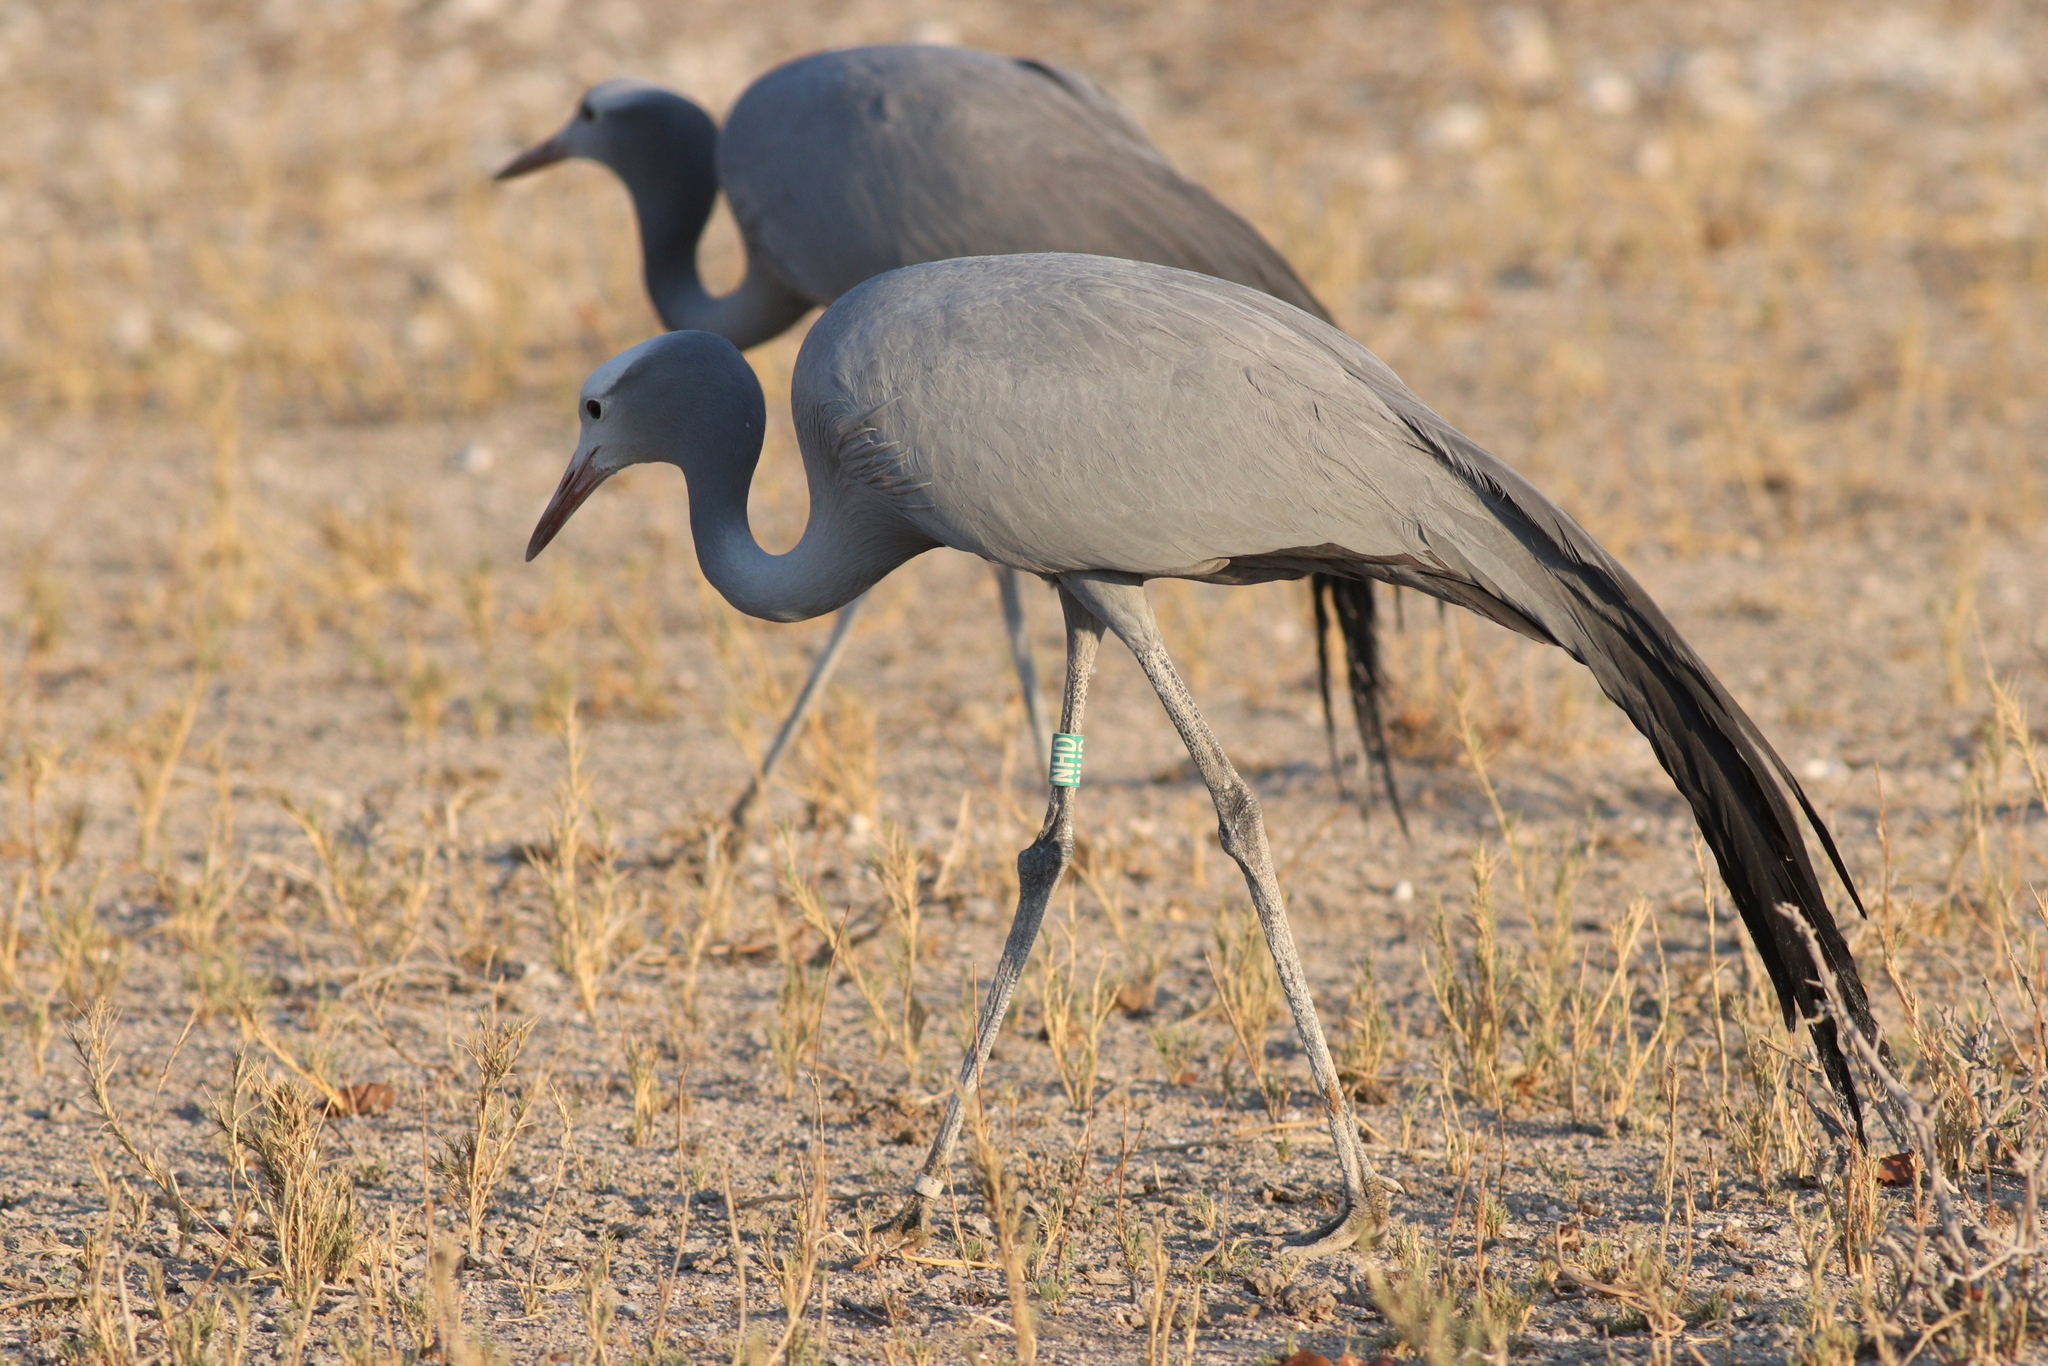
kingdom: Animalia
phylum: Chordata
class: Aves
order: Gruiformes
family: Gruidae
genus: Anthropoides
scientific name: Anthropoides paradiseus
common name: Blue crane
